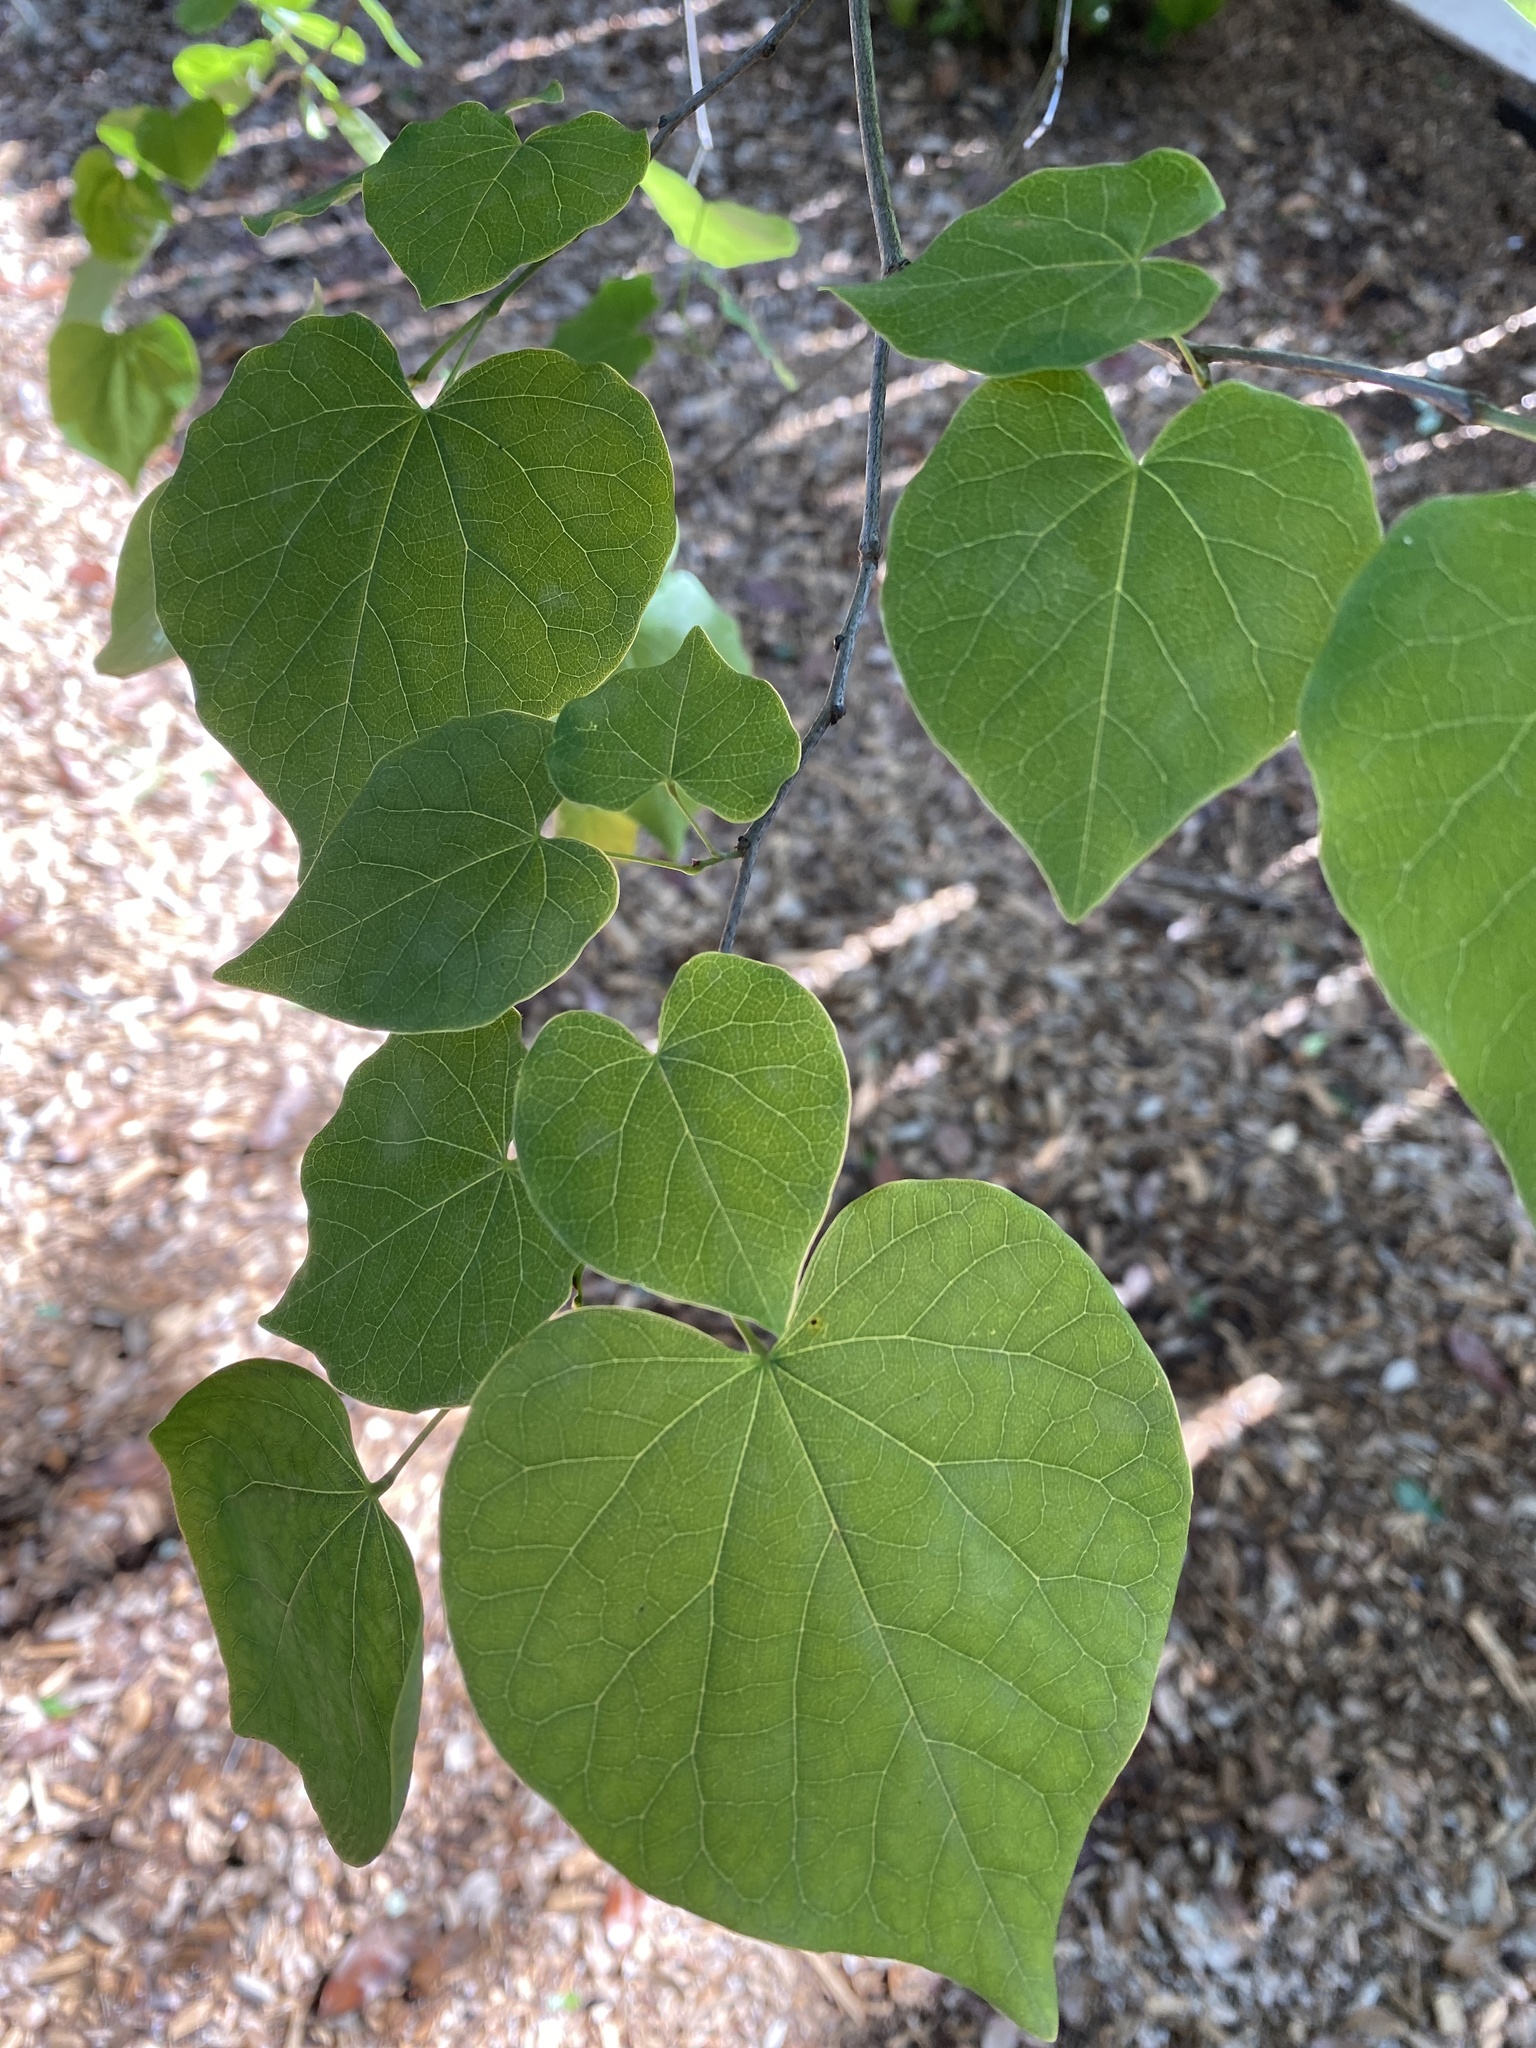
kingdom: Plantae
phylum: Tracheophyta
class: Magnoliopsida
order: Fabales
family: Fabaceae
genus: Cercis
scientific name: Cercis canadensis
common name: Eastern redbud
